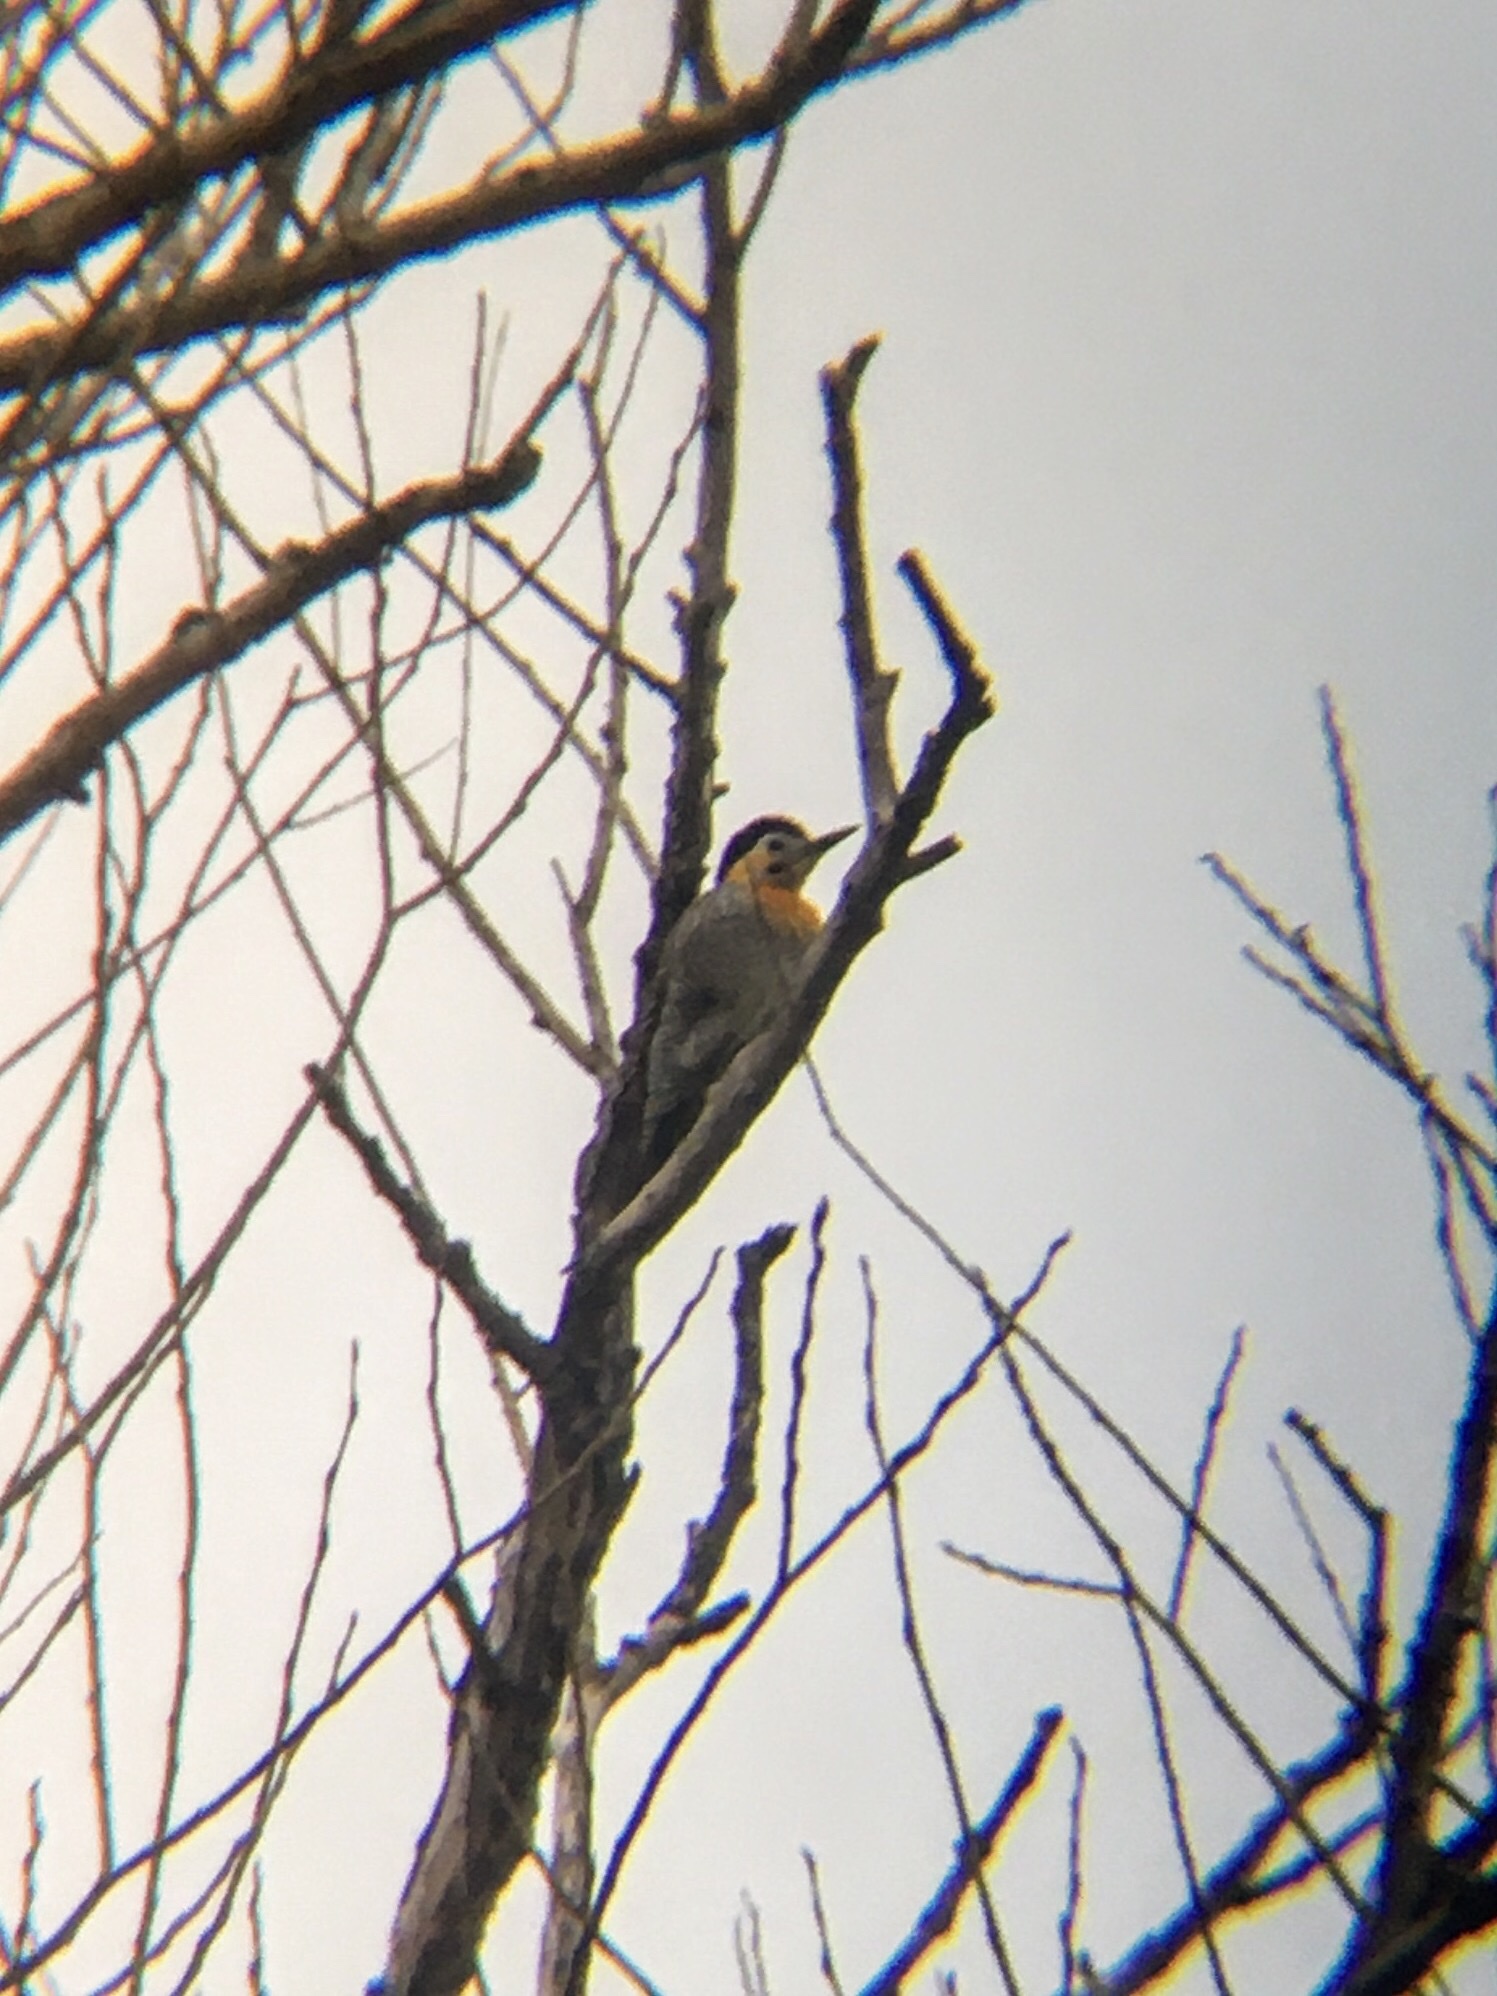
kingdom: Animalia
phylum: Chordata
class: Aves
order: Piciformes
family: Picidae
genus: Colaptes
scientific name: Colaptes campestris
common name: Campo flicker
